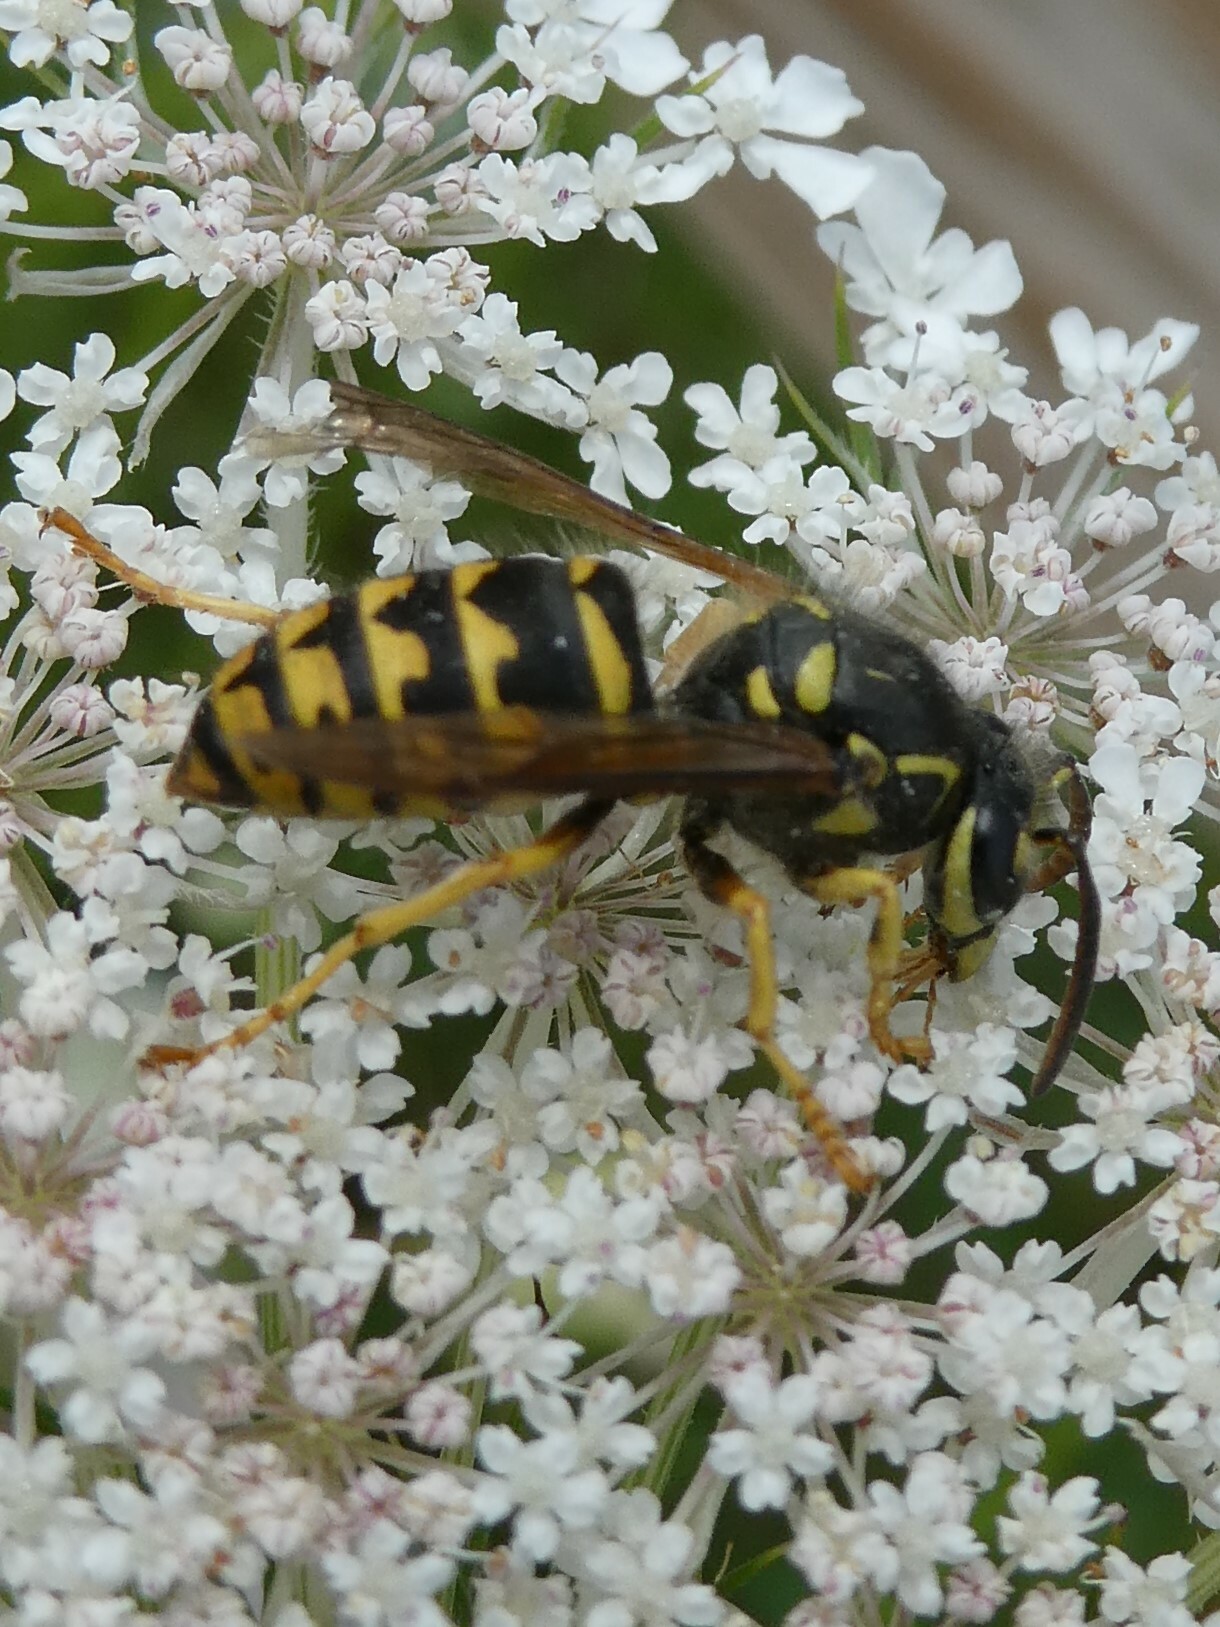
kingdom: Animalia
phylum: Arthropoda
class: Insecta
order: Hymenoptera
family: Vespidae
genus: Dolichovespula
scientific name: Dolichovespula arenaria
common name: Aerial yellowjacket
